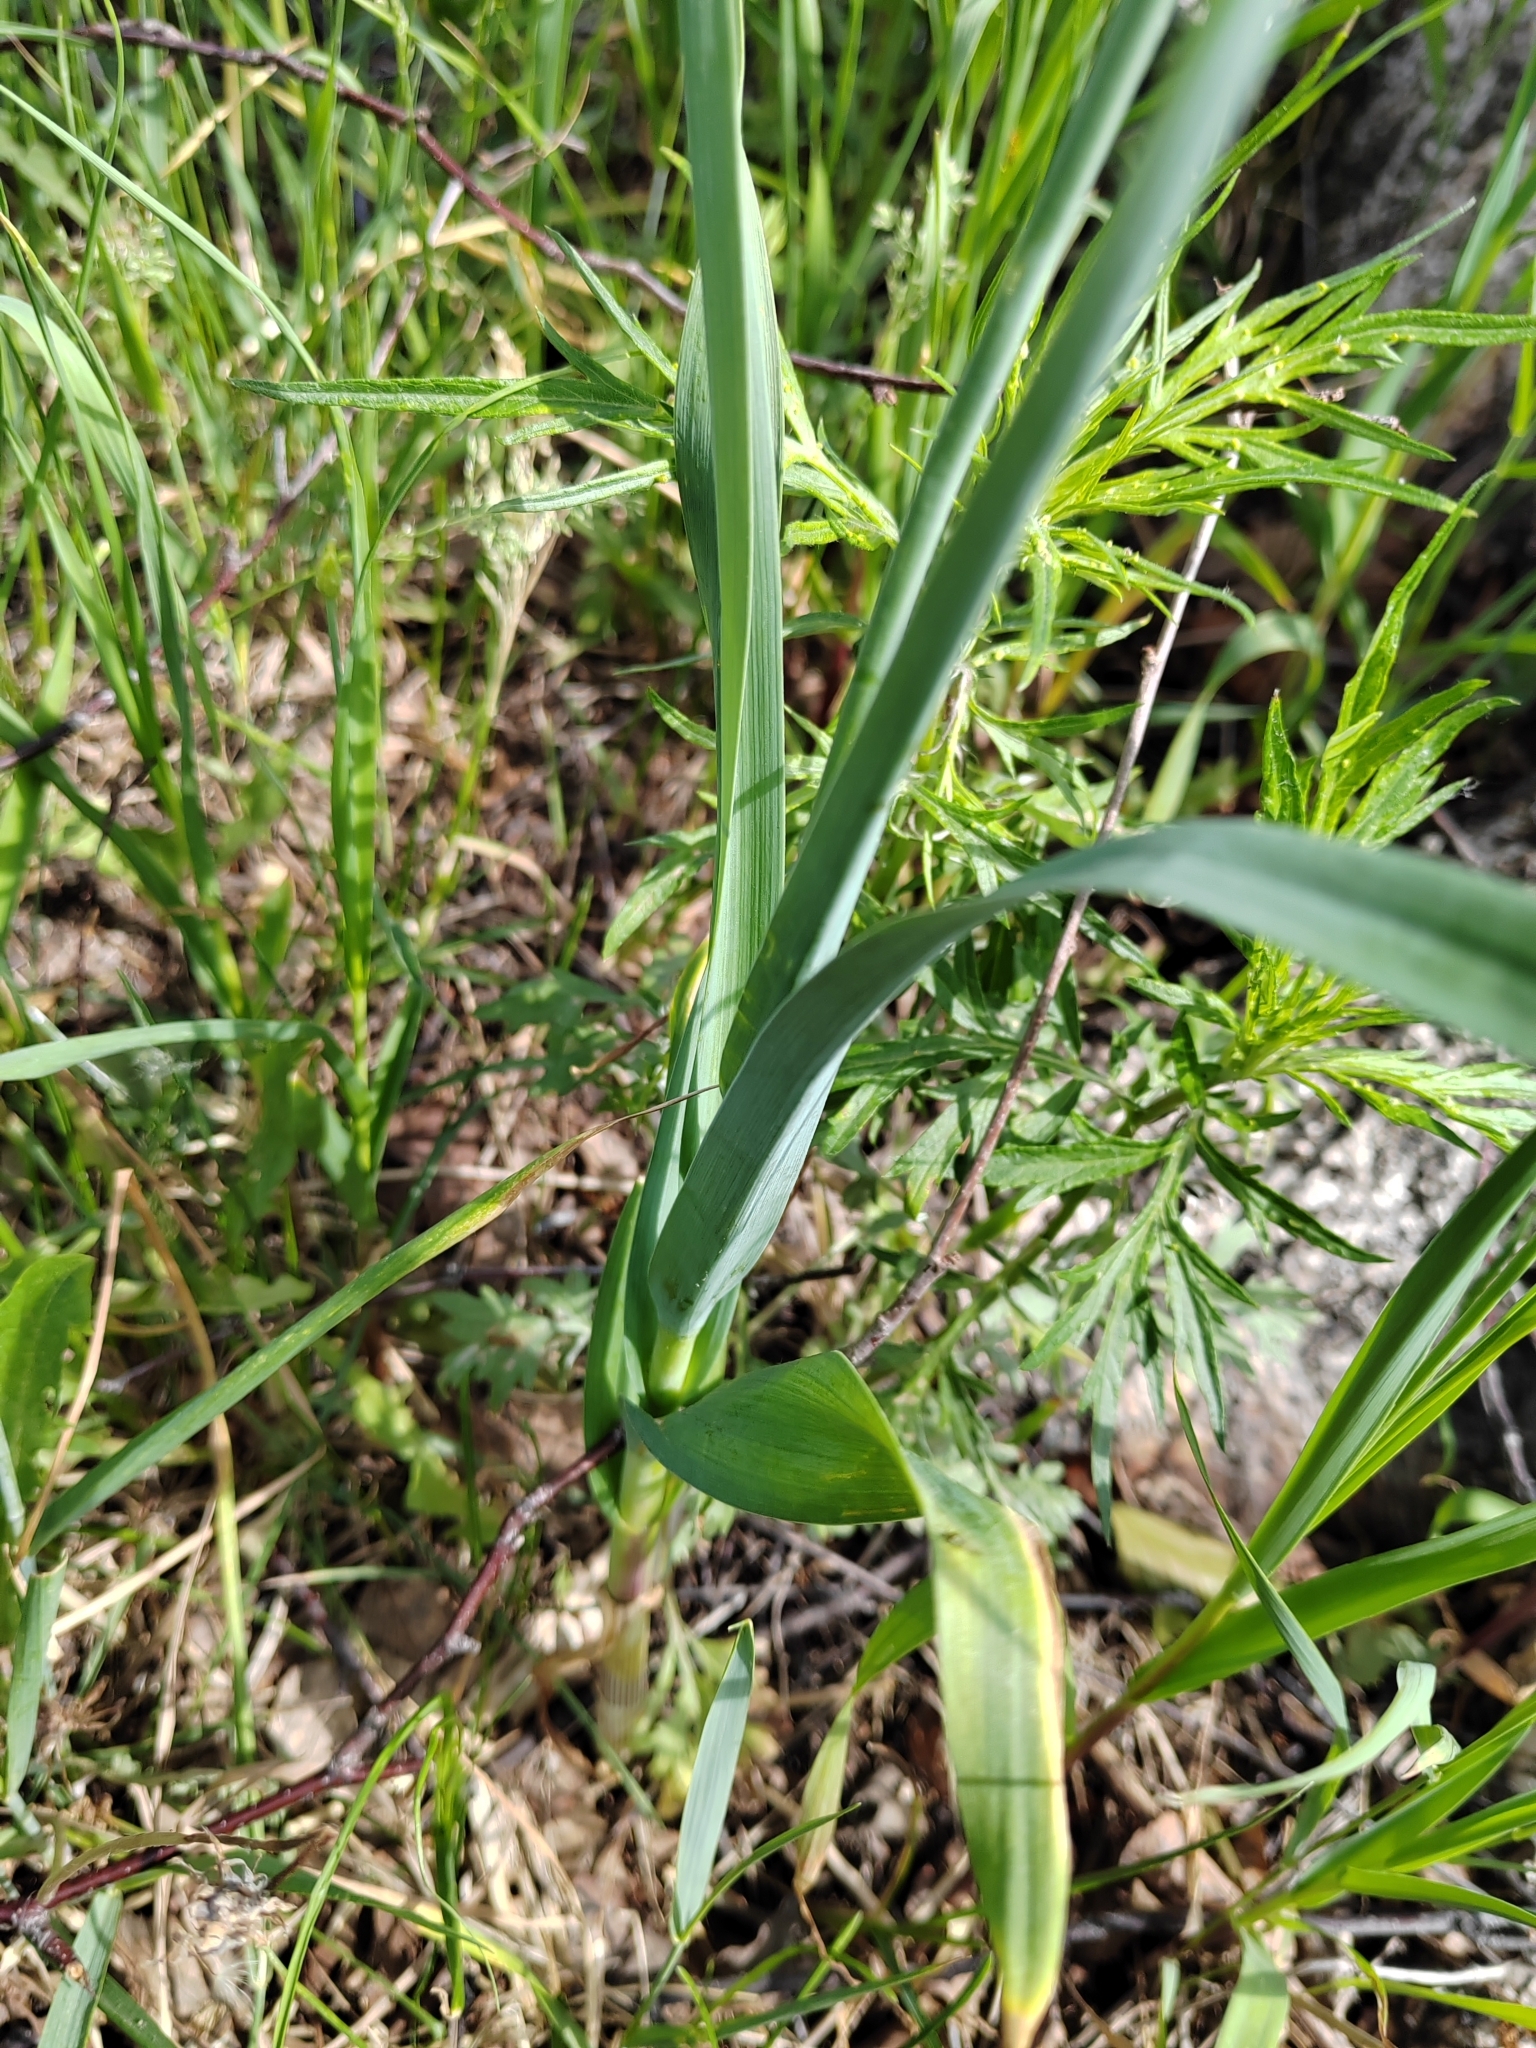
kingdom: Plantae
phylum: Tracheophyta
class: Liliopsida
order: Asparagales
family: Amaryllidaceae
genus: Allium
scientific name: Allium obliquum
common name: Oblique onion
